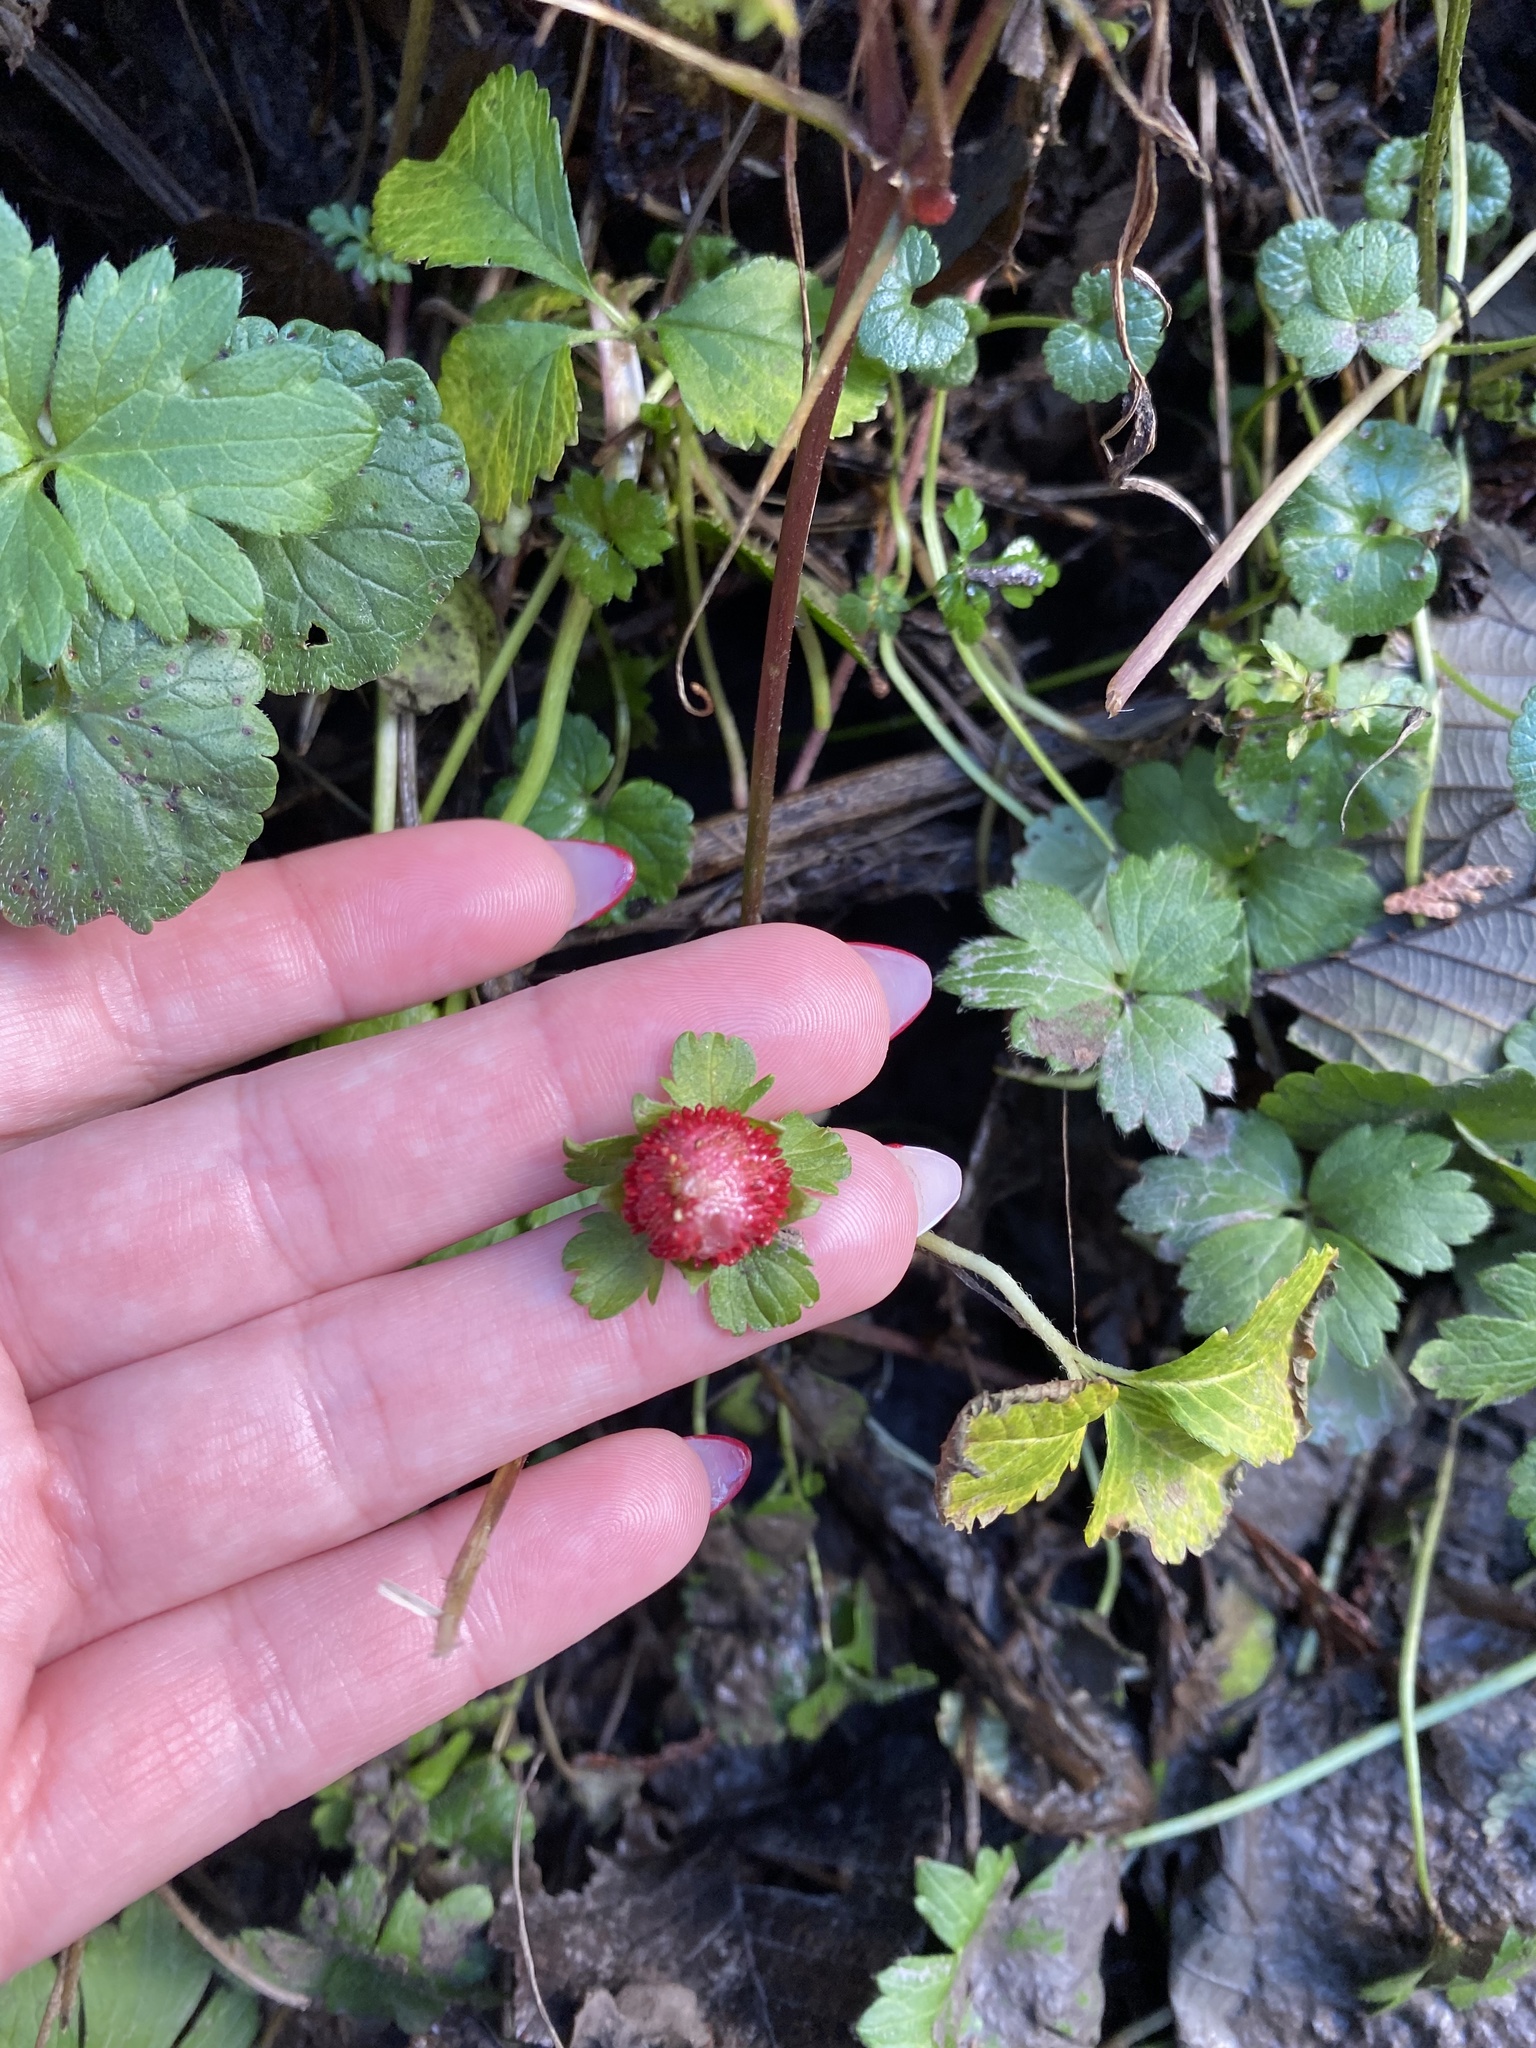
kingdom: Plantae
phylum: Tracheophyta
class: Magnoliopsida
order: Rosales
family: Rosaceae
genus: Potentilla
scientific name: Potentilla indica
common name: Yellow-flowered strawberry
